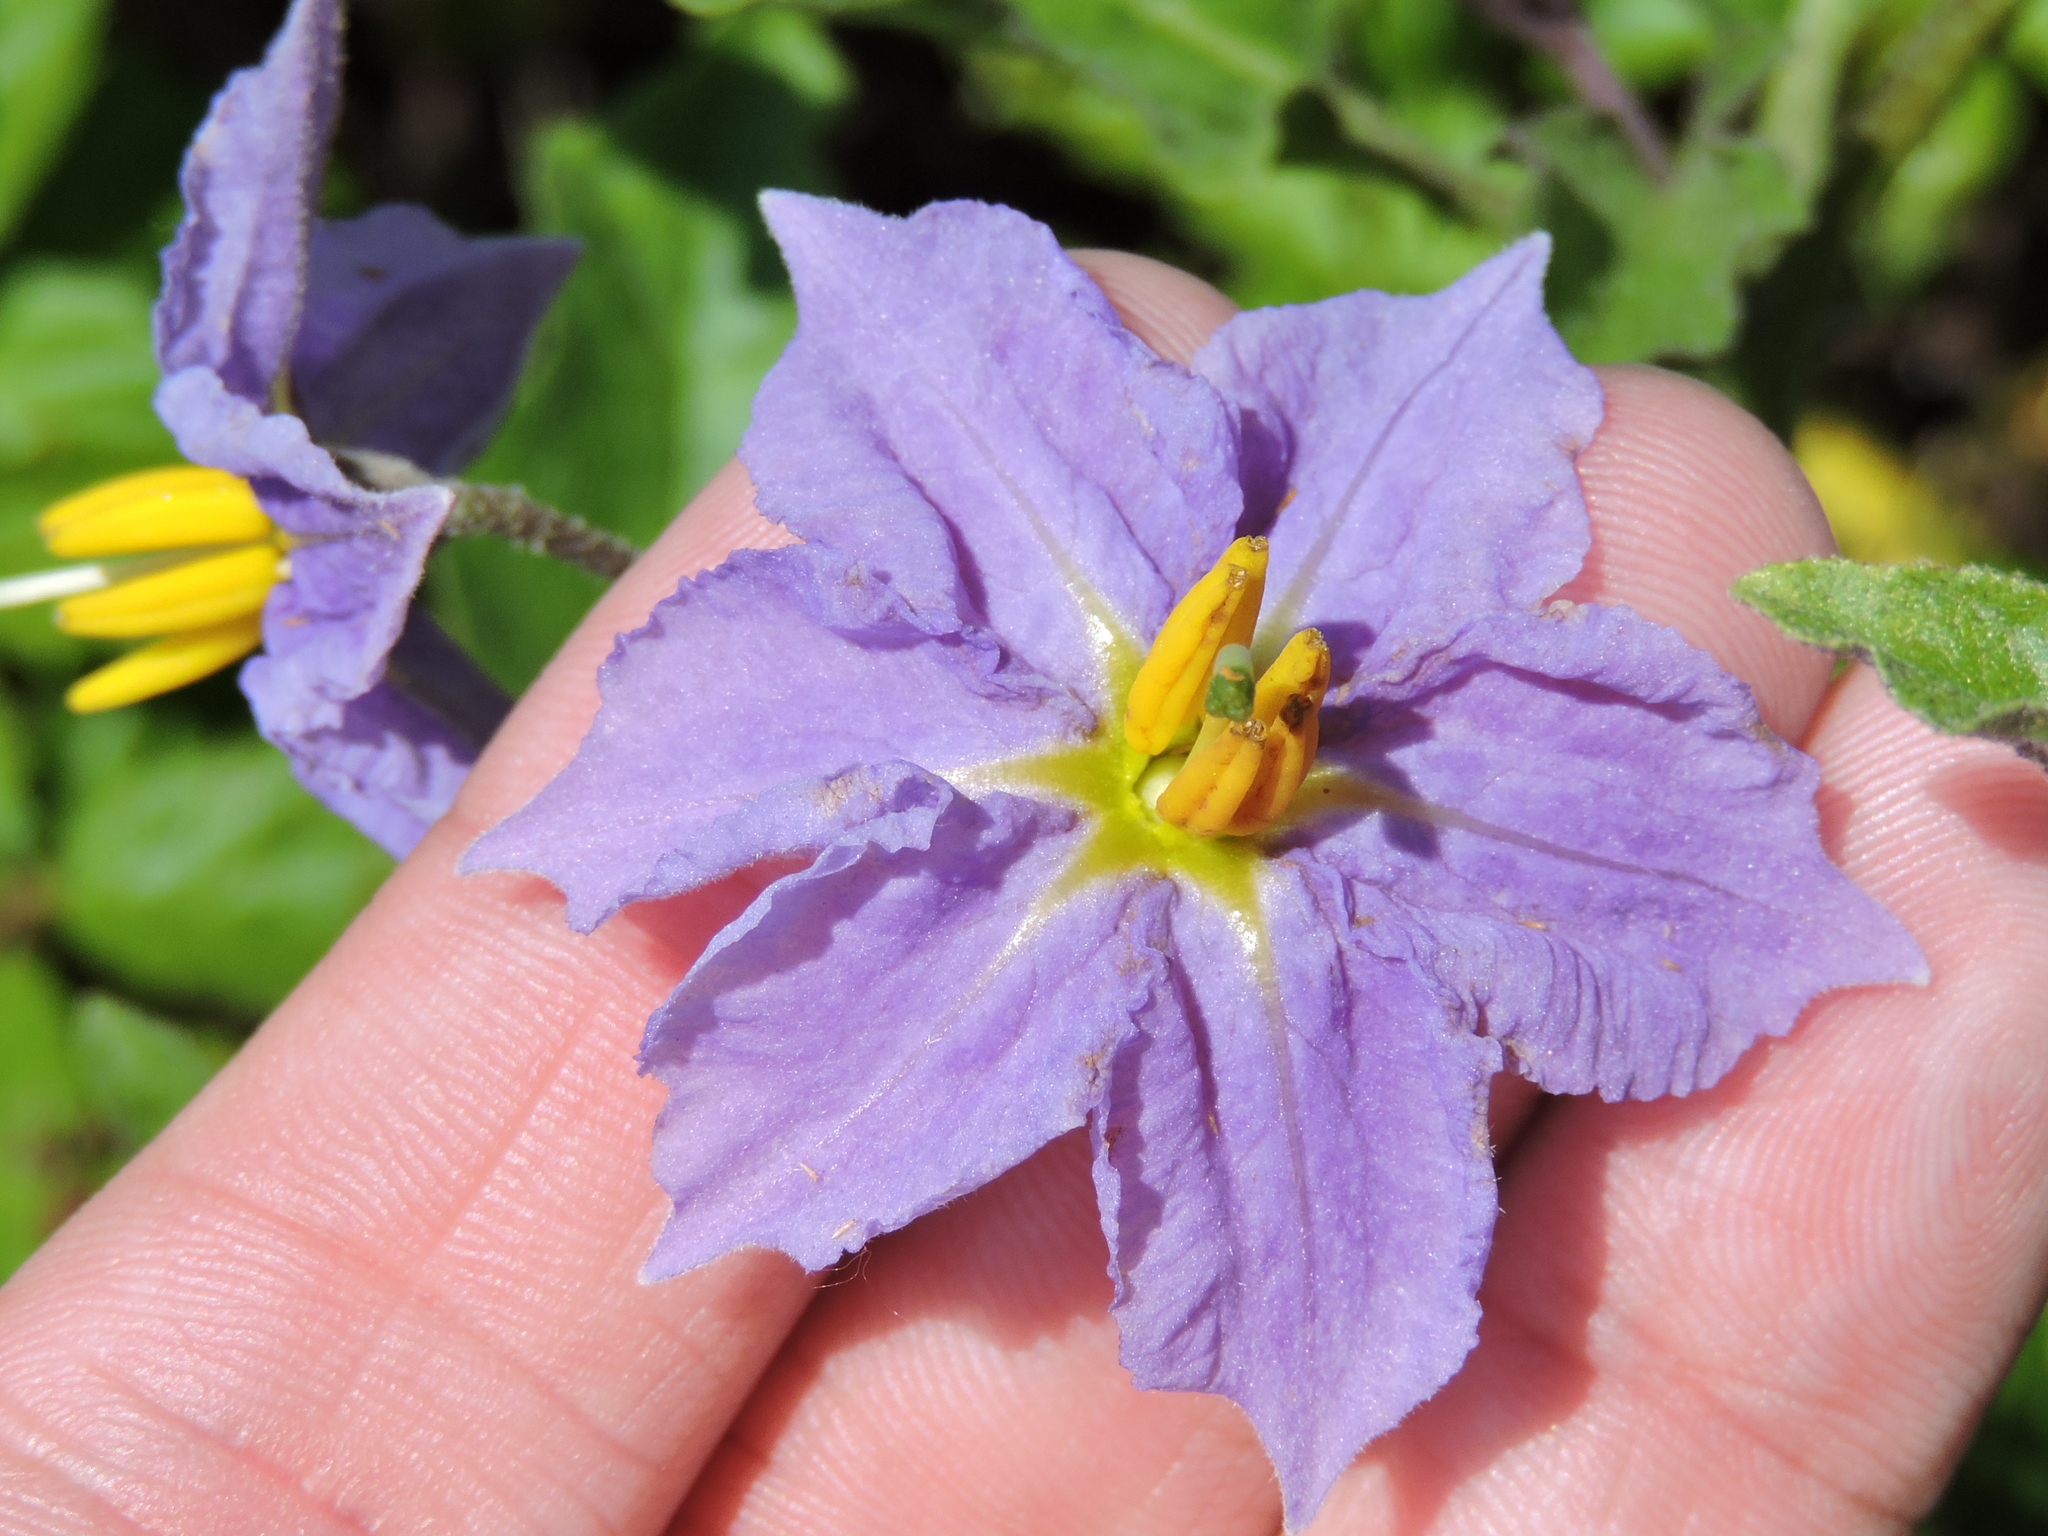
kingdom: Plantae
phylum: Tracheophyta
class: Magnoliopsida
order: Solanales
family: Solanaceae
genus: Solanum
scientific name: Solanum dimidiatum
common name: Carolina horse-nettle
